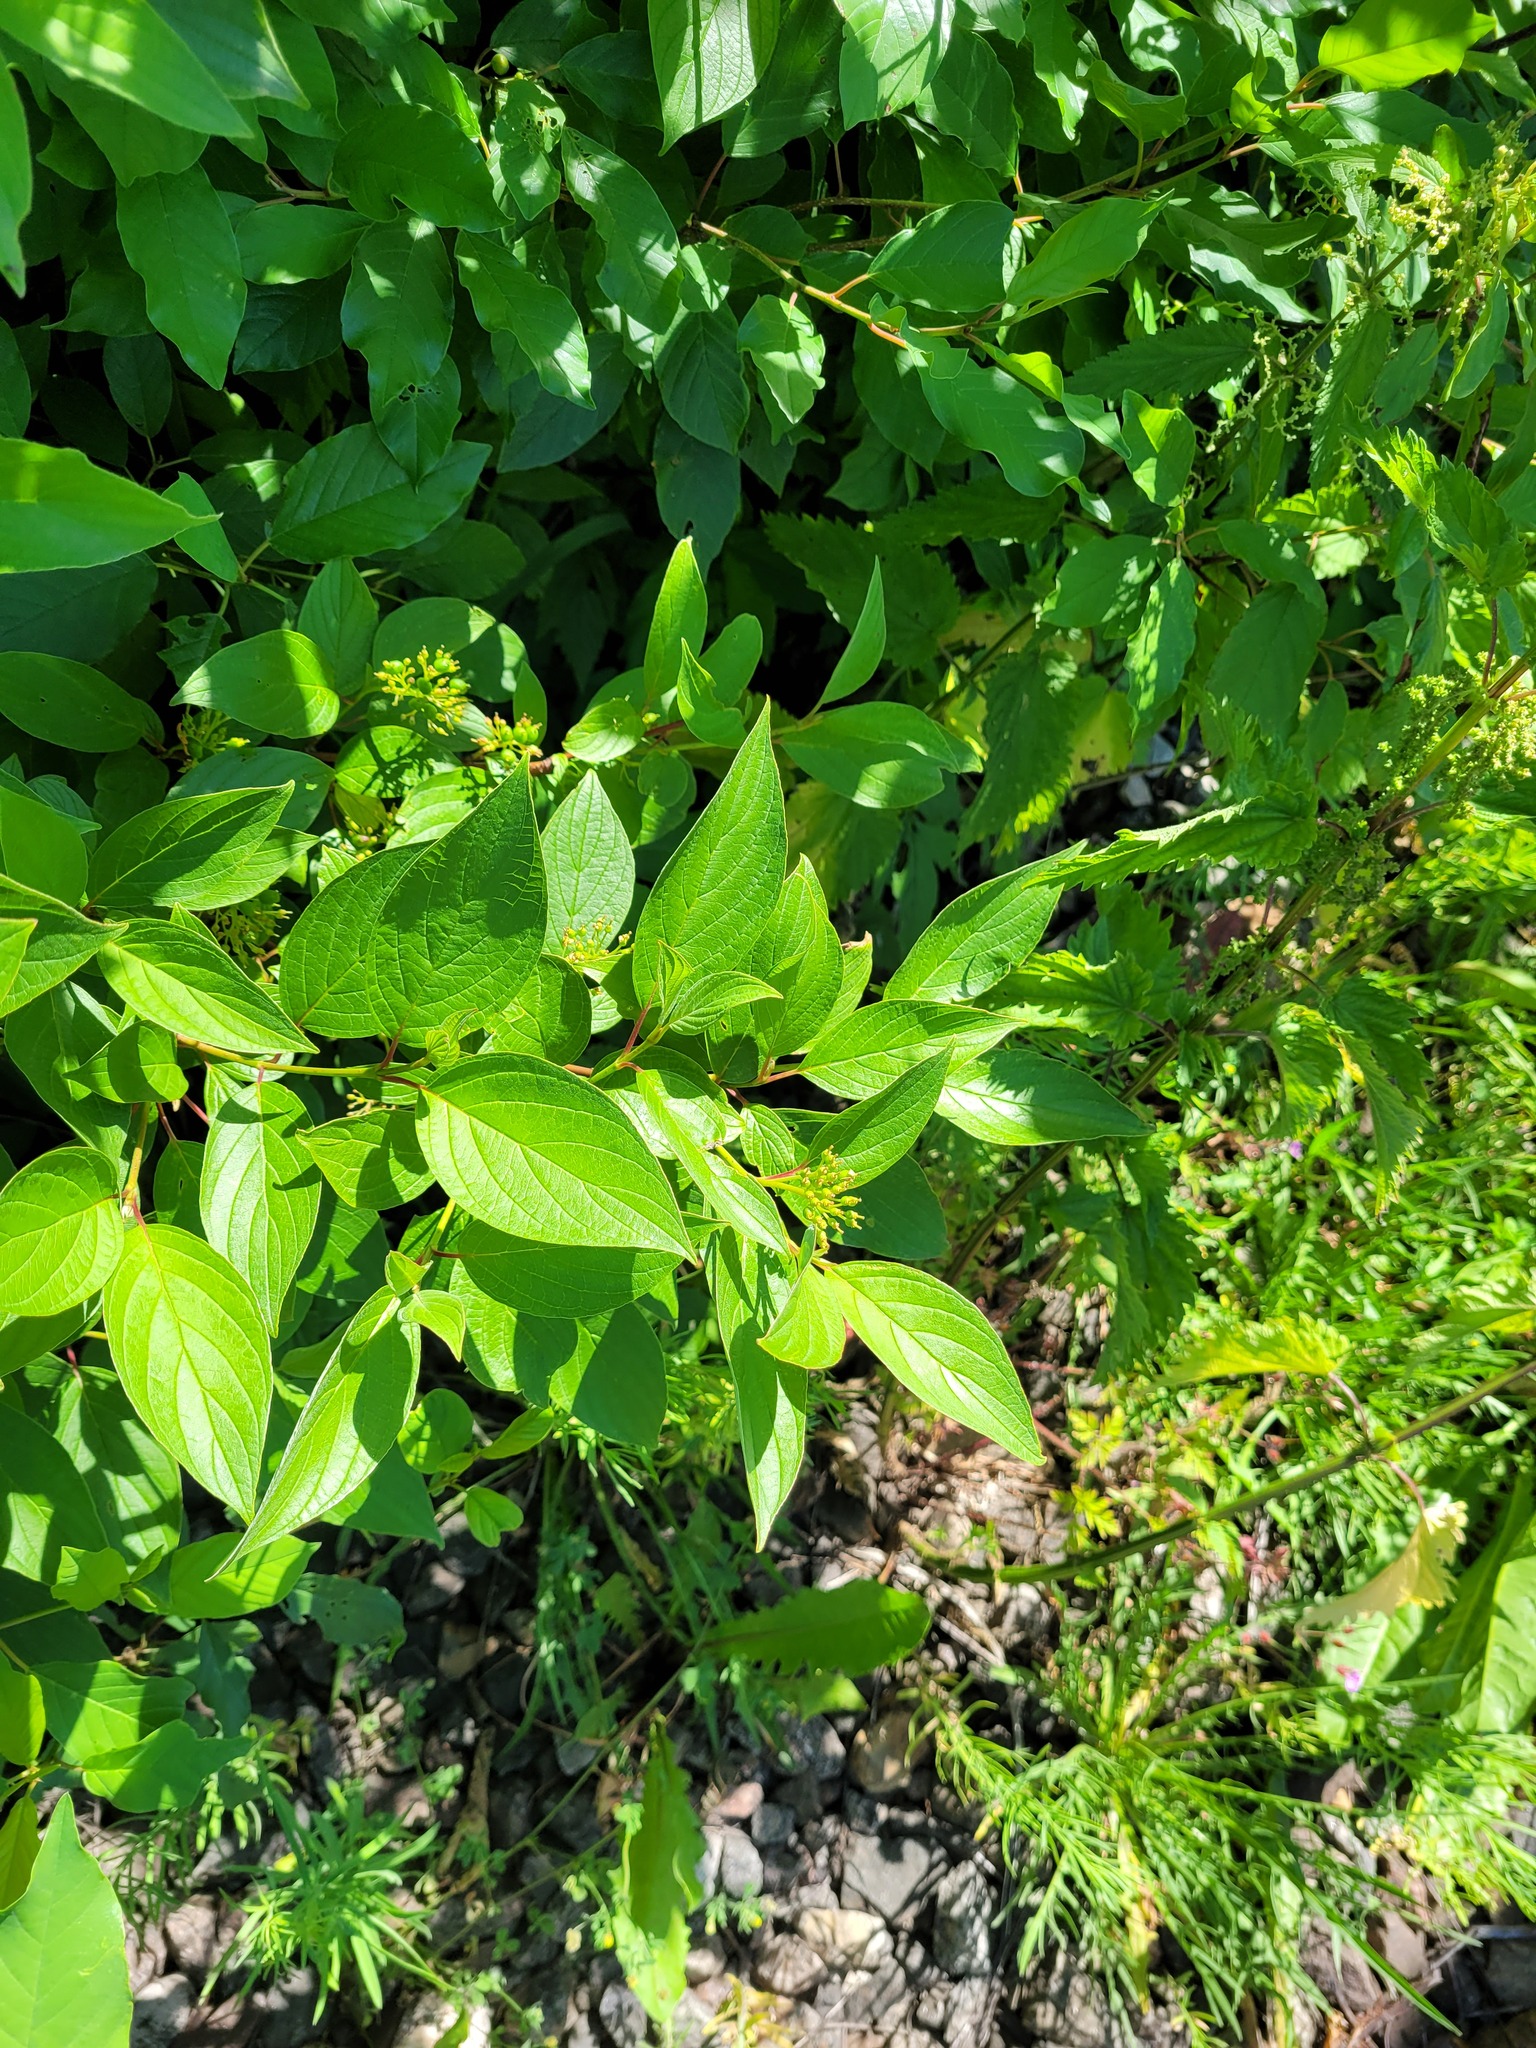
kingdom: Plantae
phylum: Tracheophyta
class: Magnoliopsida
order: Cornales
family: Cornaceae
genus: Cornus
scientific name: Cornus alba
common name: White dogwood
